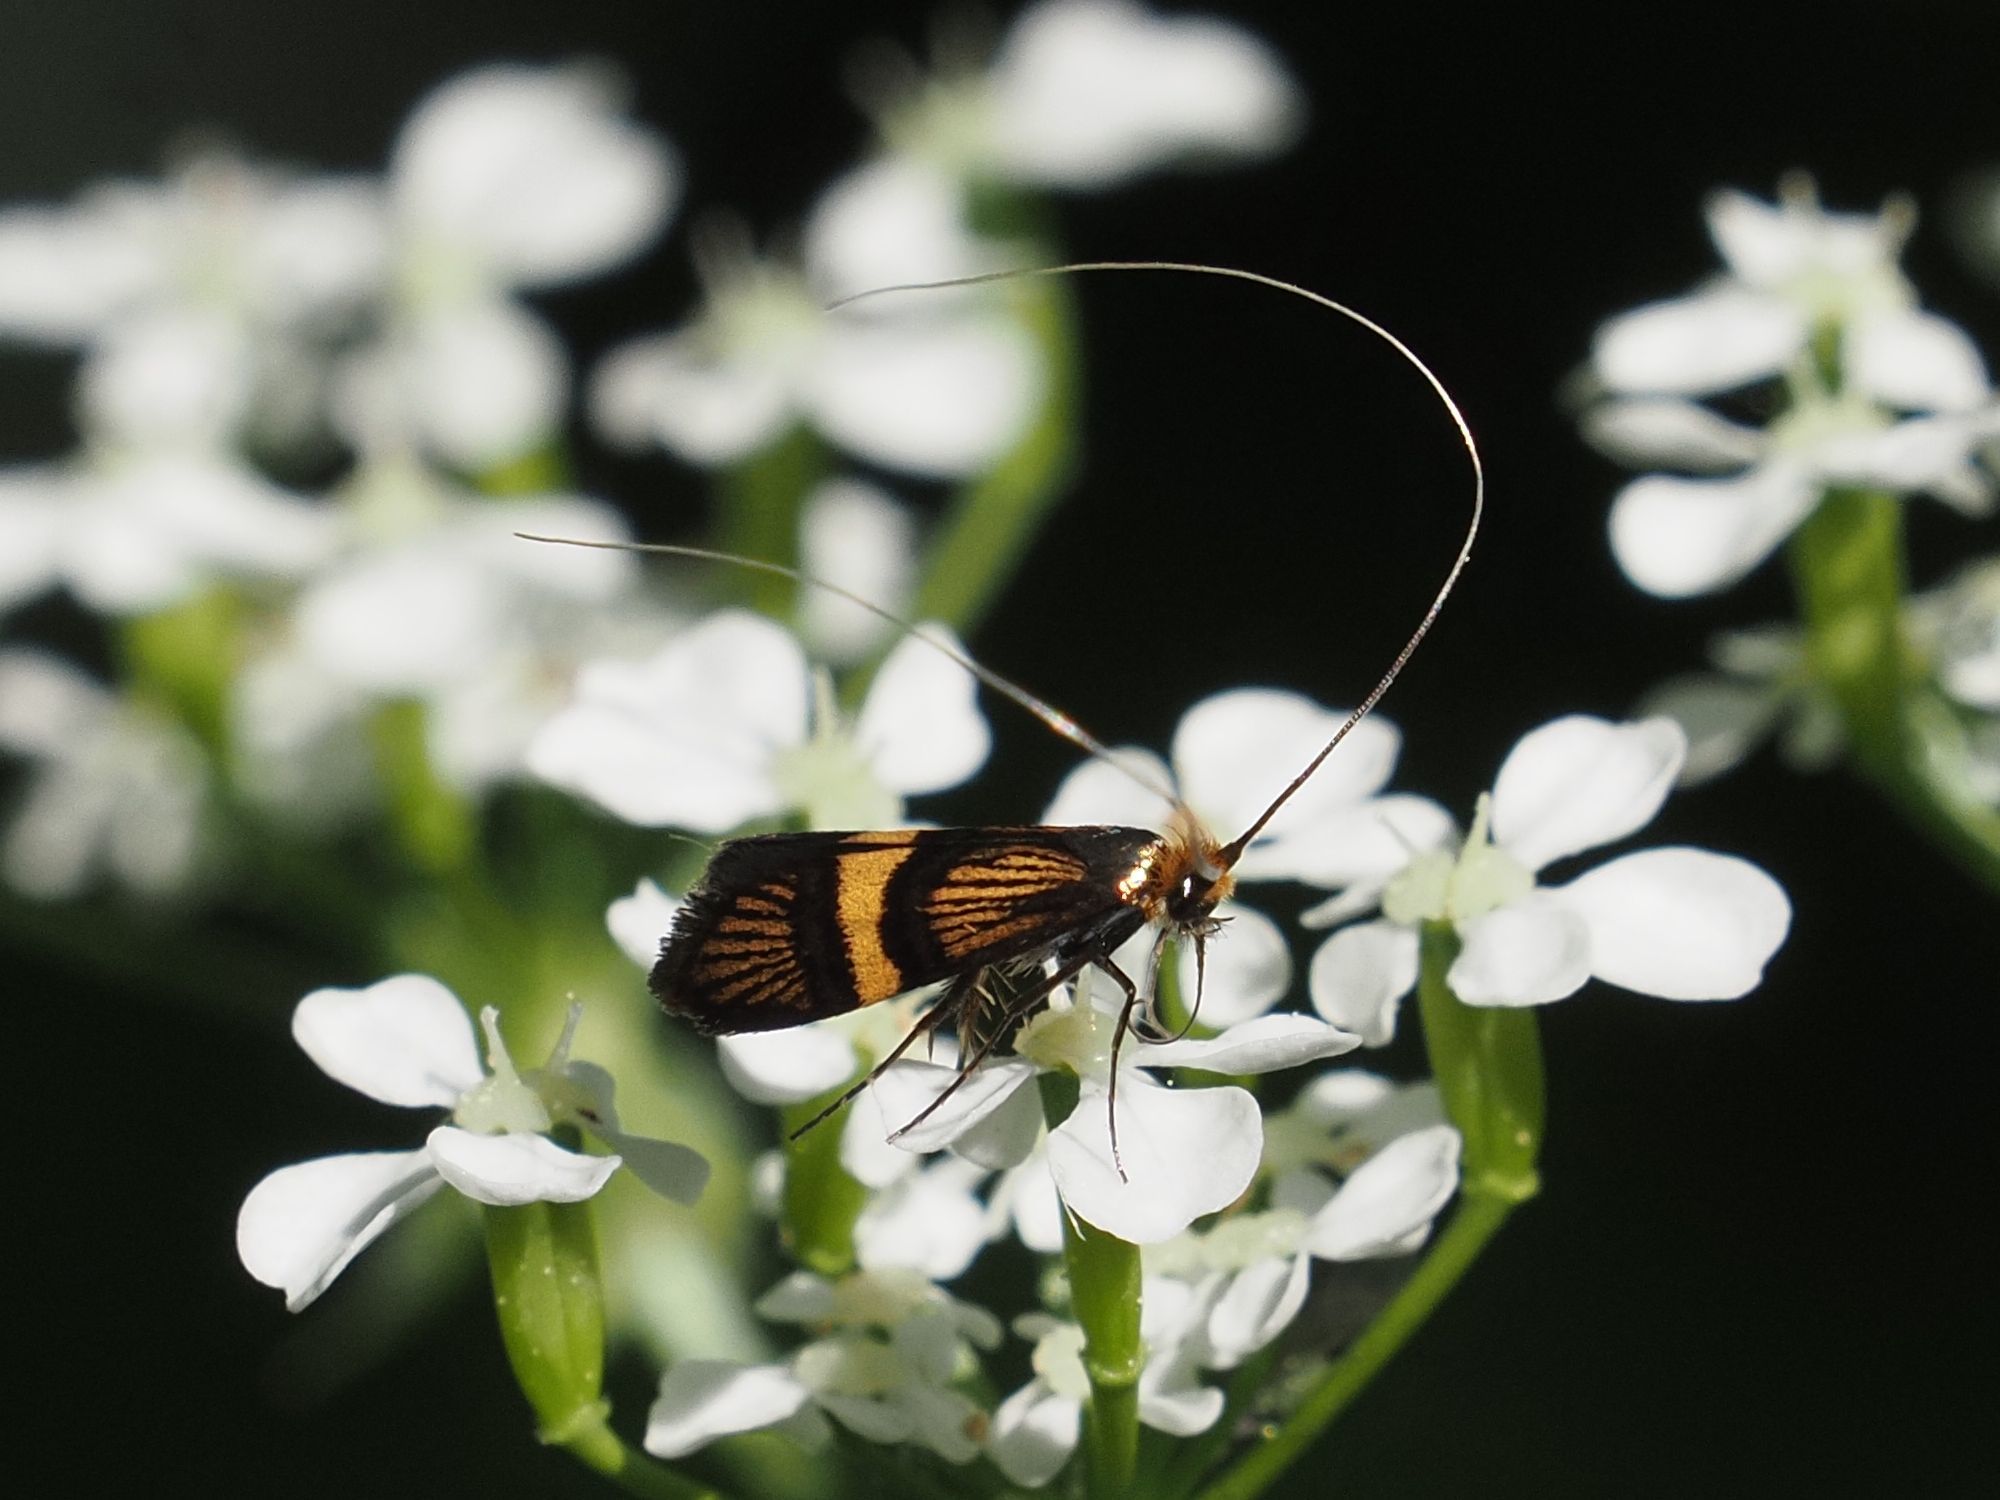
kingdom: Animalia
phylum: Arthropoda
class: Insecta
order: Lepidoptera
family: Adelidae
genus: Adela
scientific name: Adela croesella
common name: Small barred long-horn
